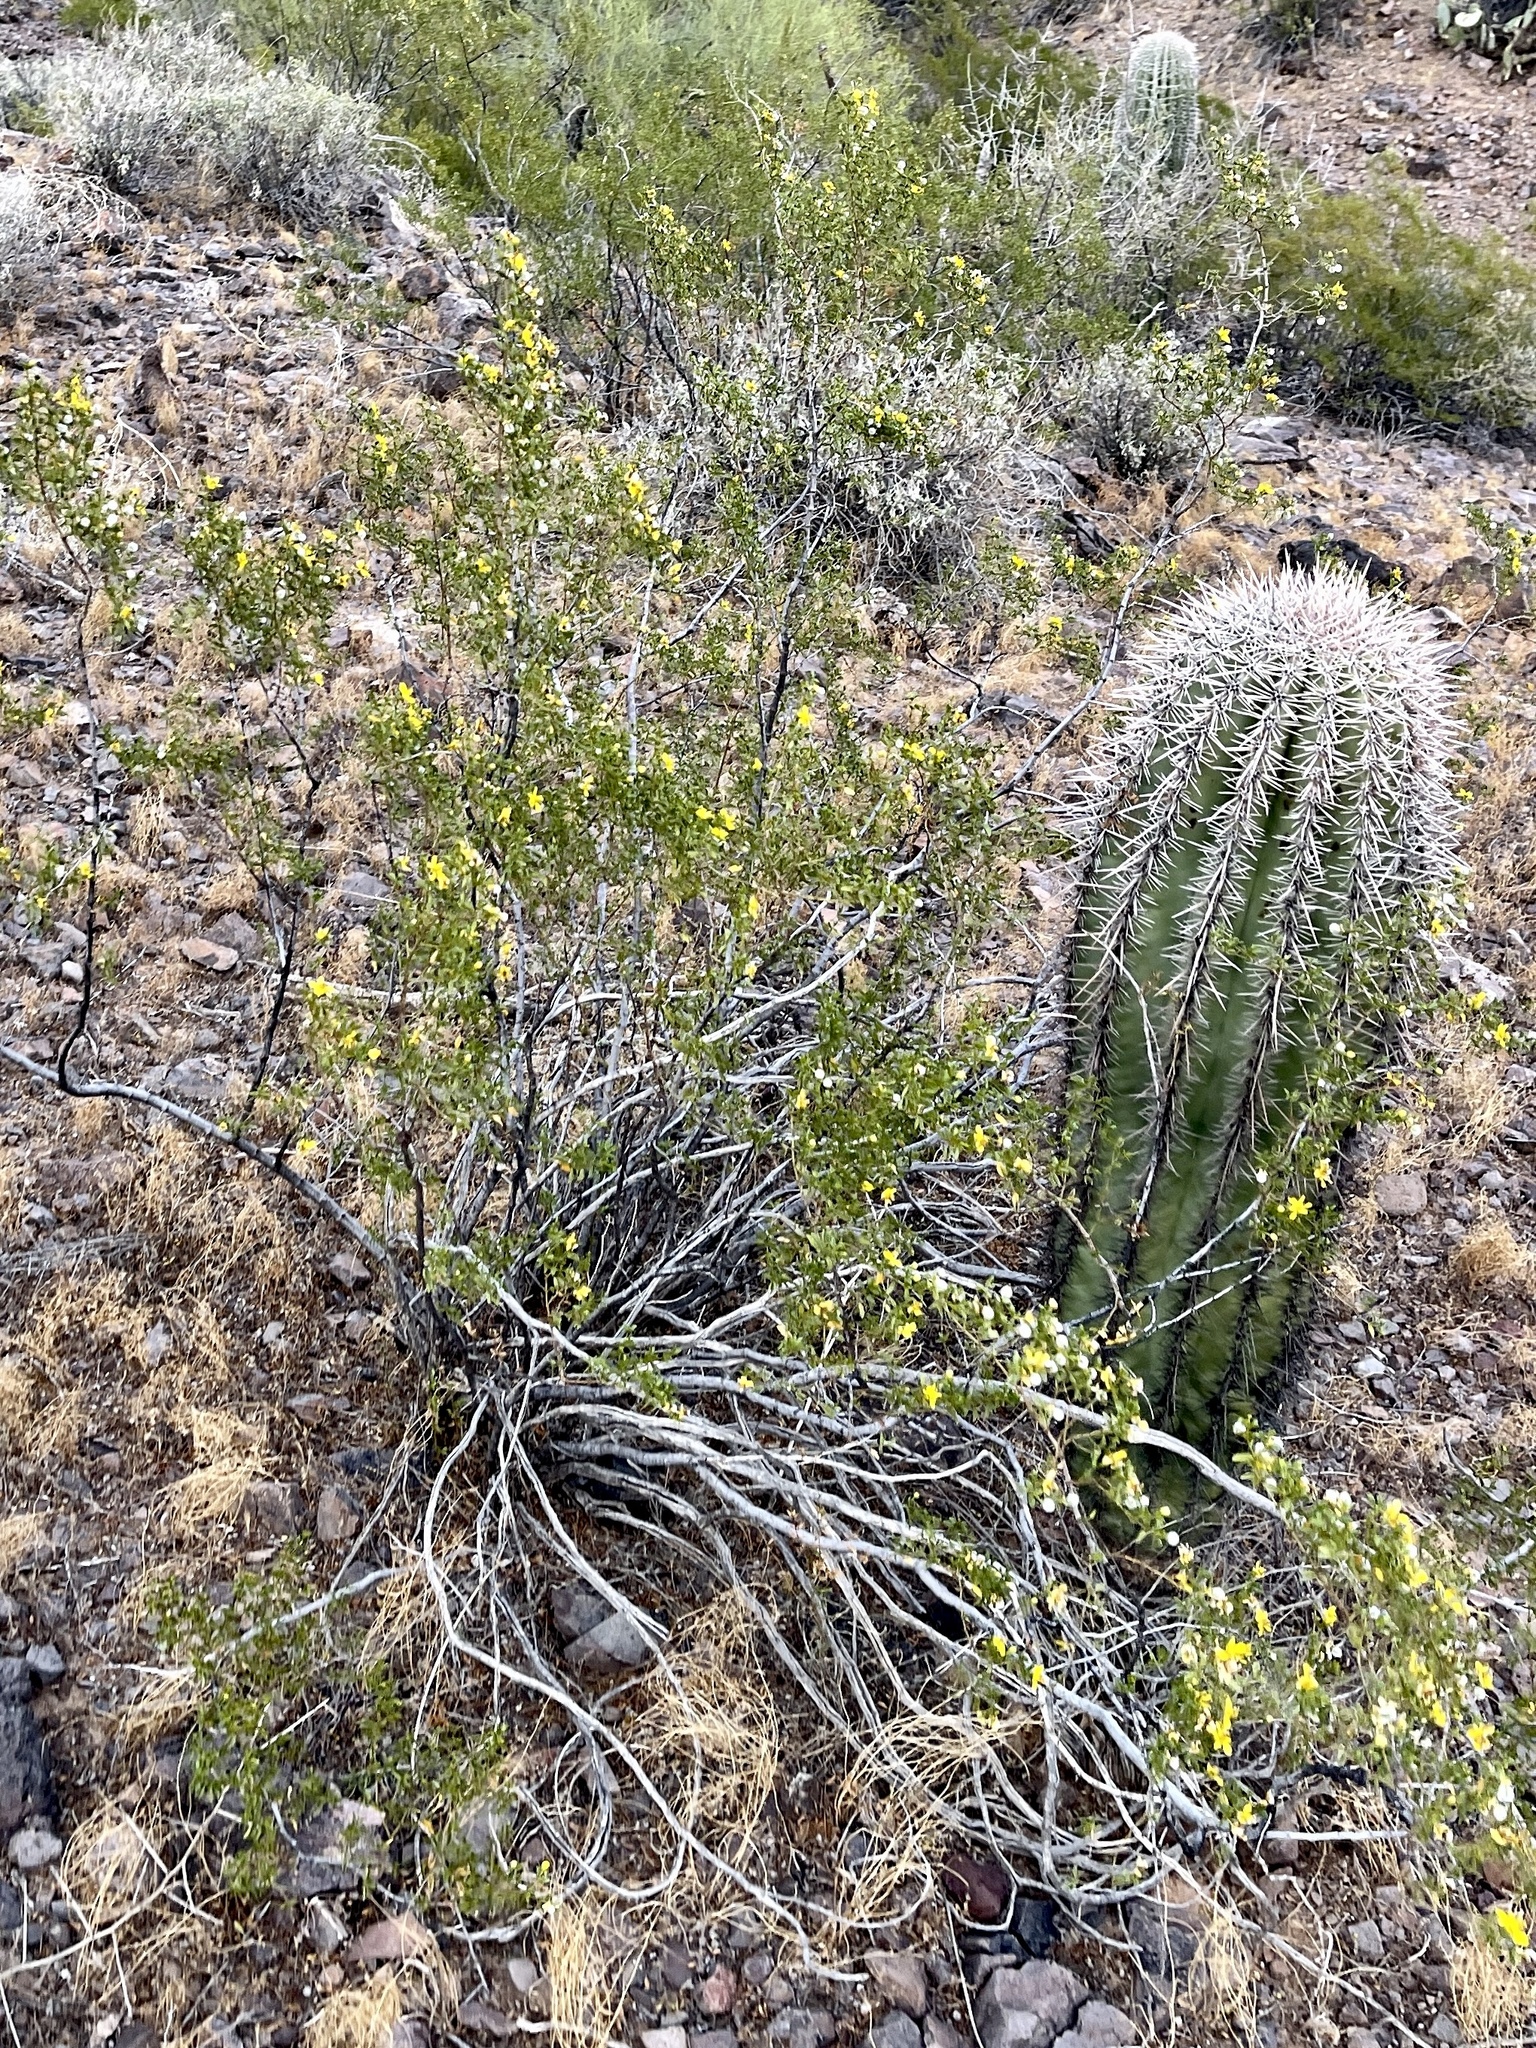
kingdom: Plantae
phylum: Tracheophyta
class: Magnoliopsida
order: Zygophyllales
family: Zygophyllaceae
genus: Larrea
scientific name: Larrea tridentata
